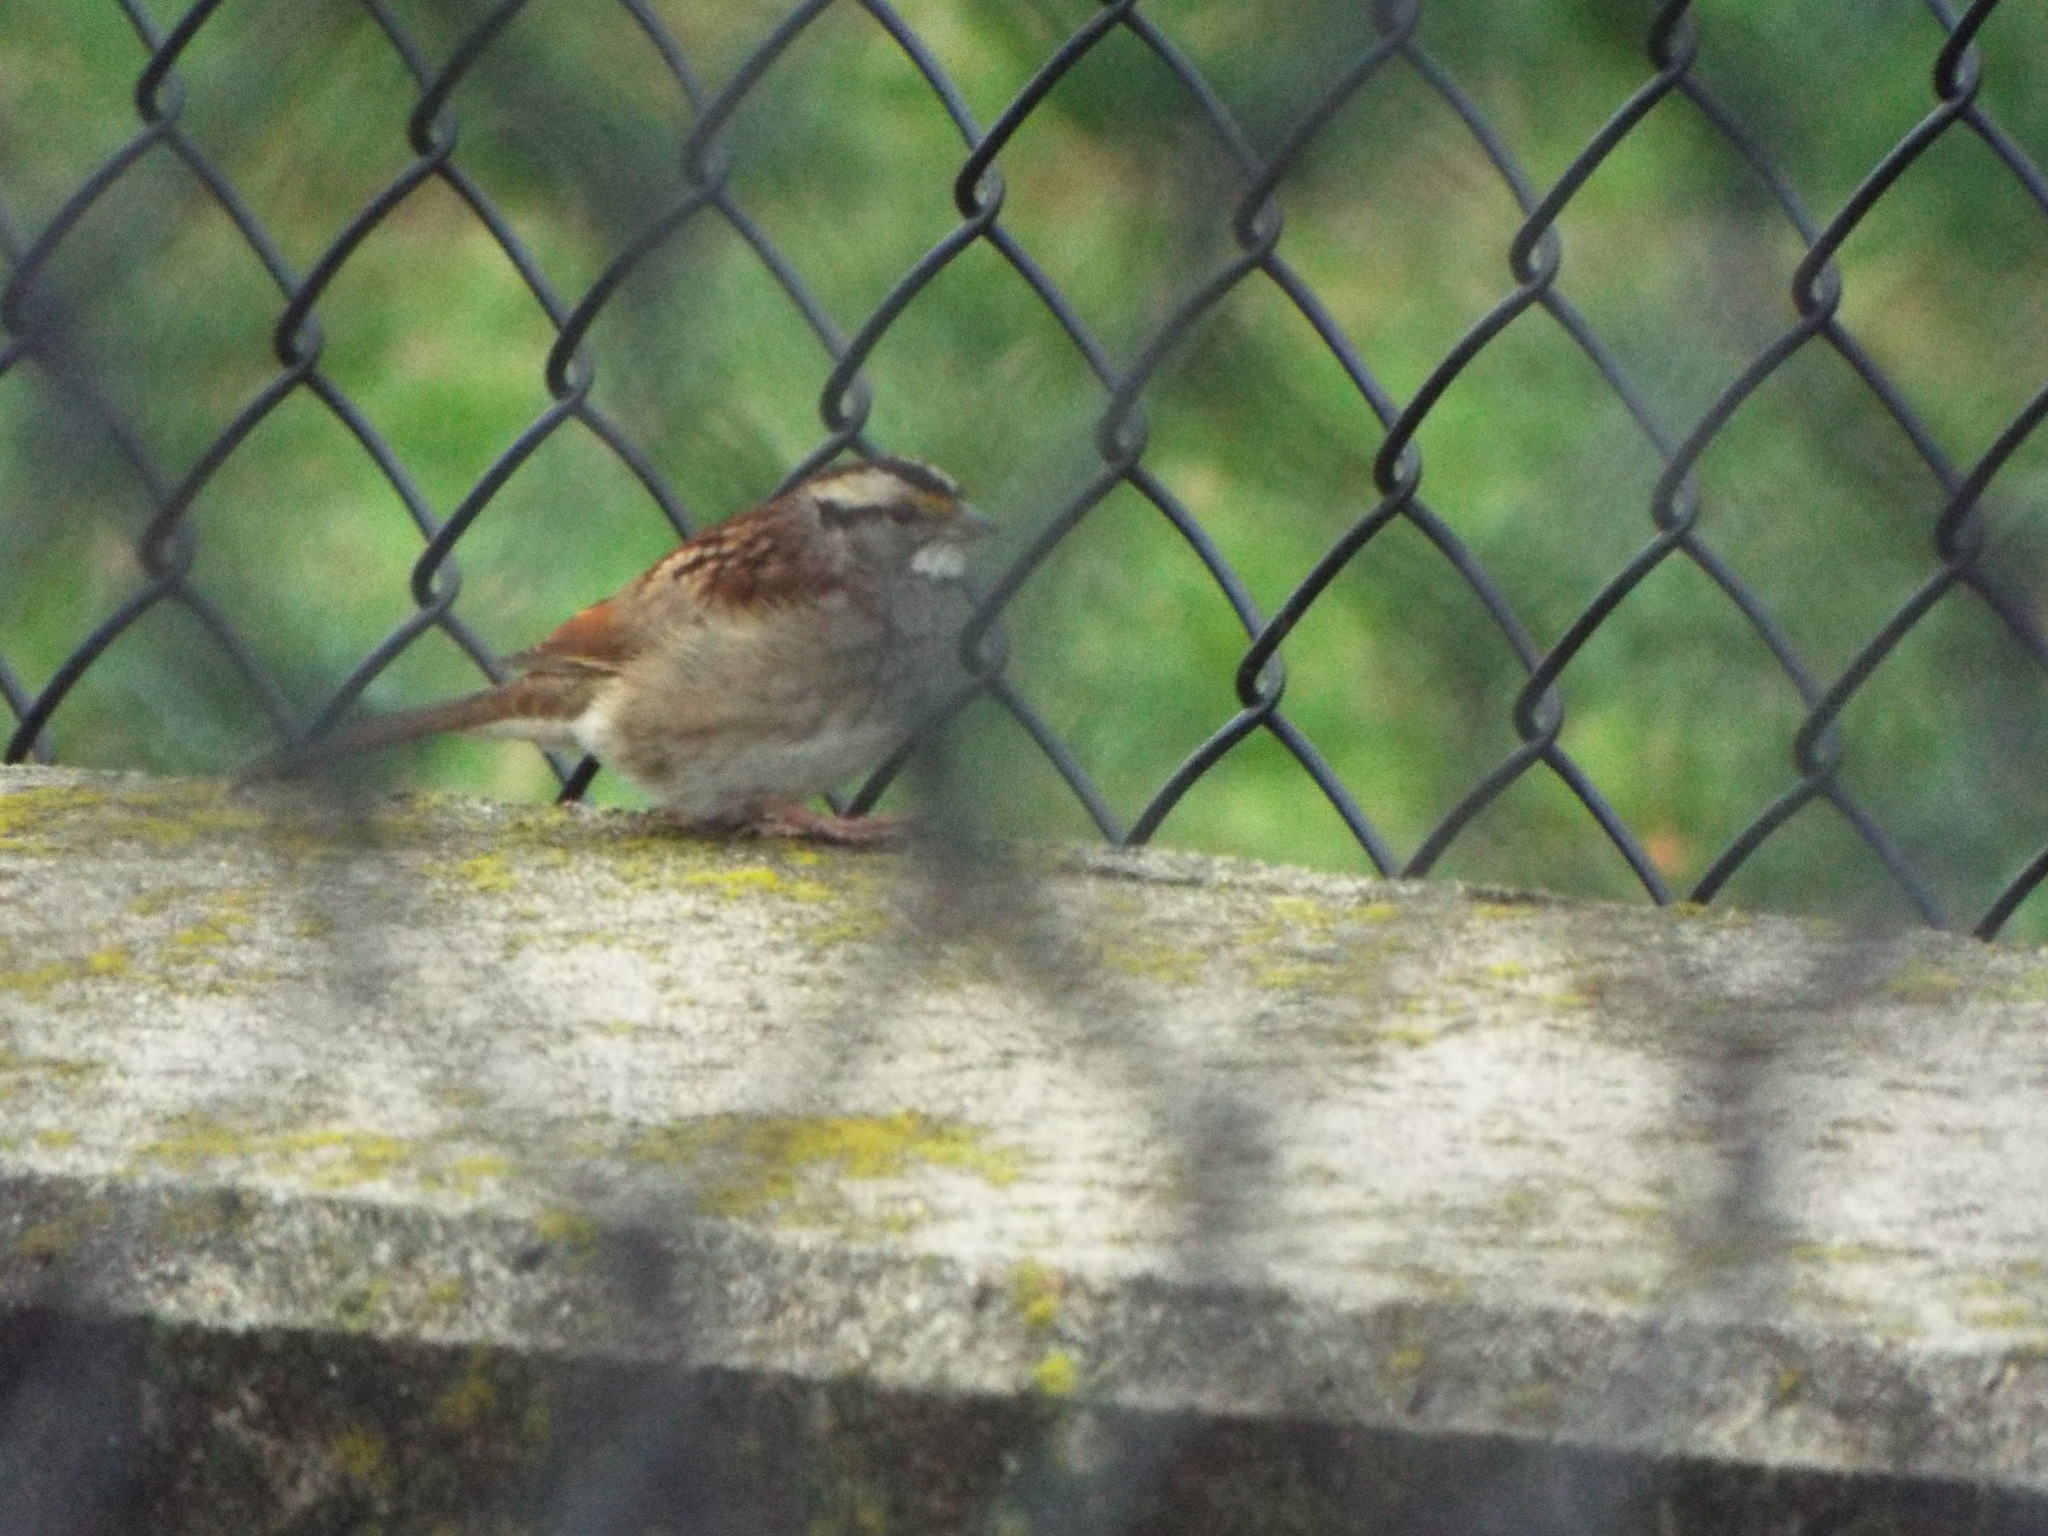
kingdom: Animalia
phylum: Chordata
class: Aves
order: Passeriformes
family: Passerellidae
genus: Zonotrichia
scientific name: Zonotrichia albicollis
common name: White-throated sparrow
